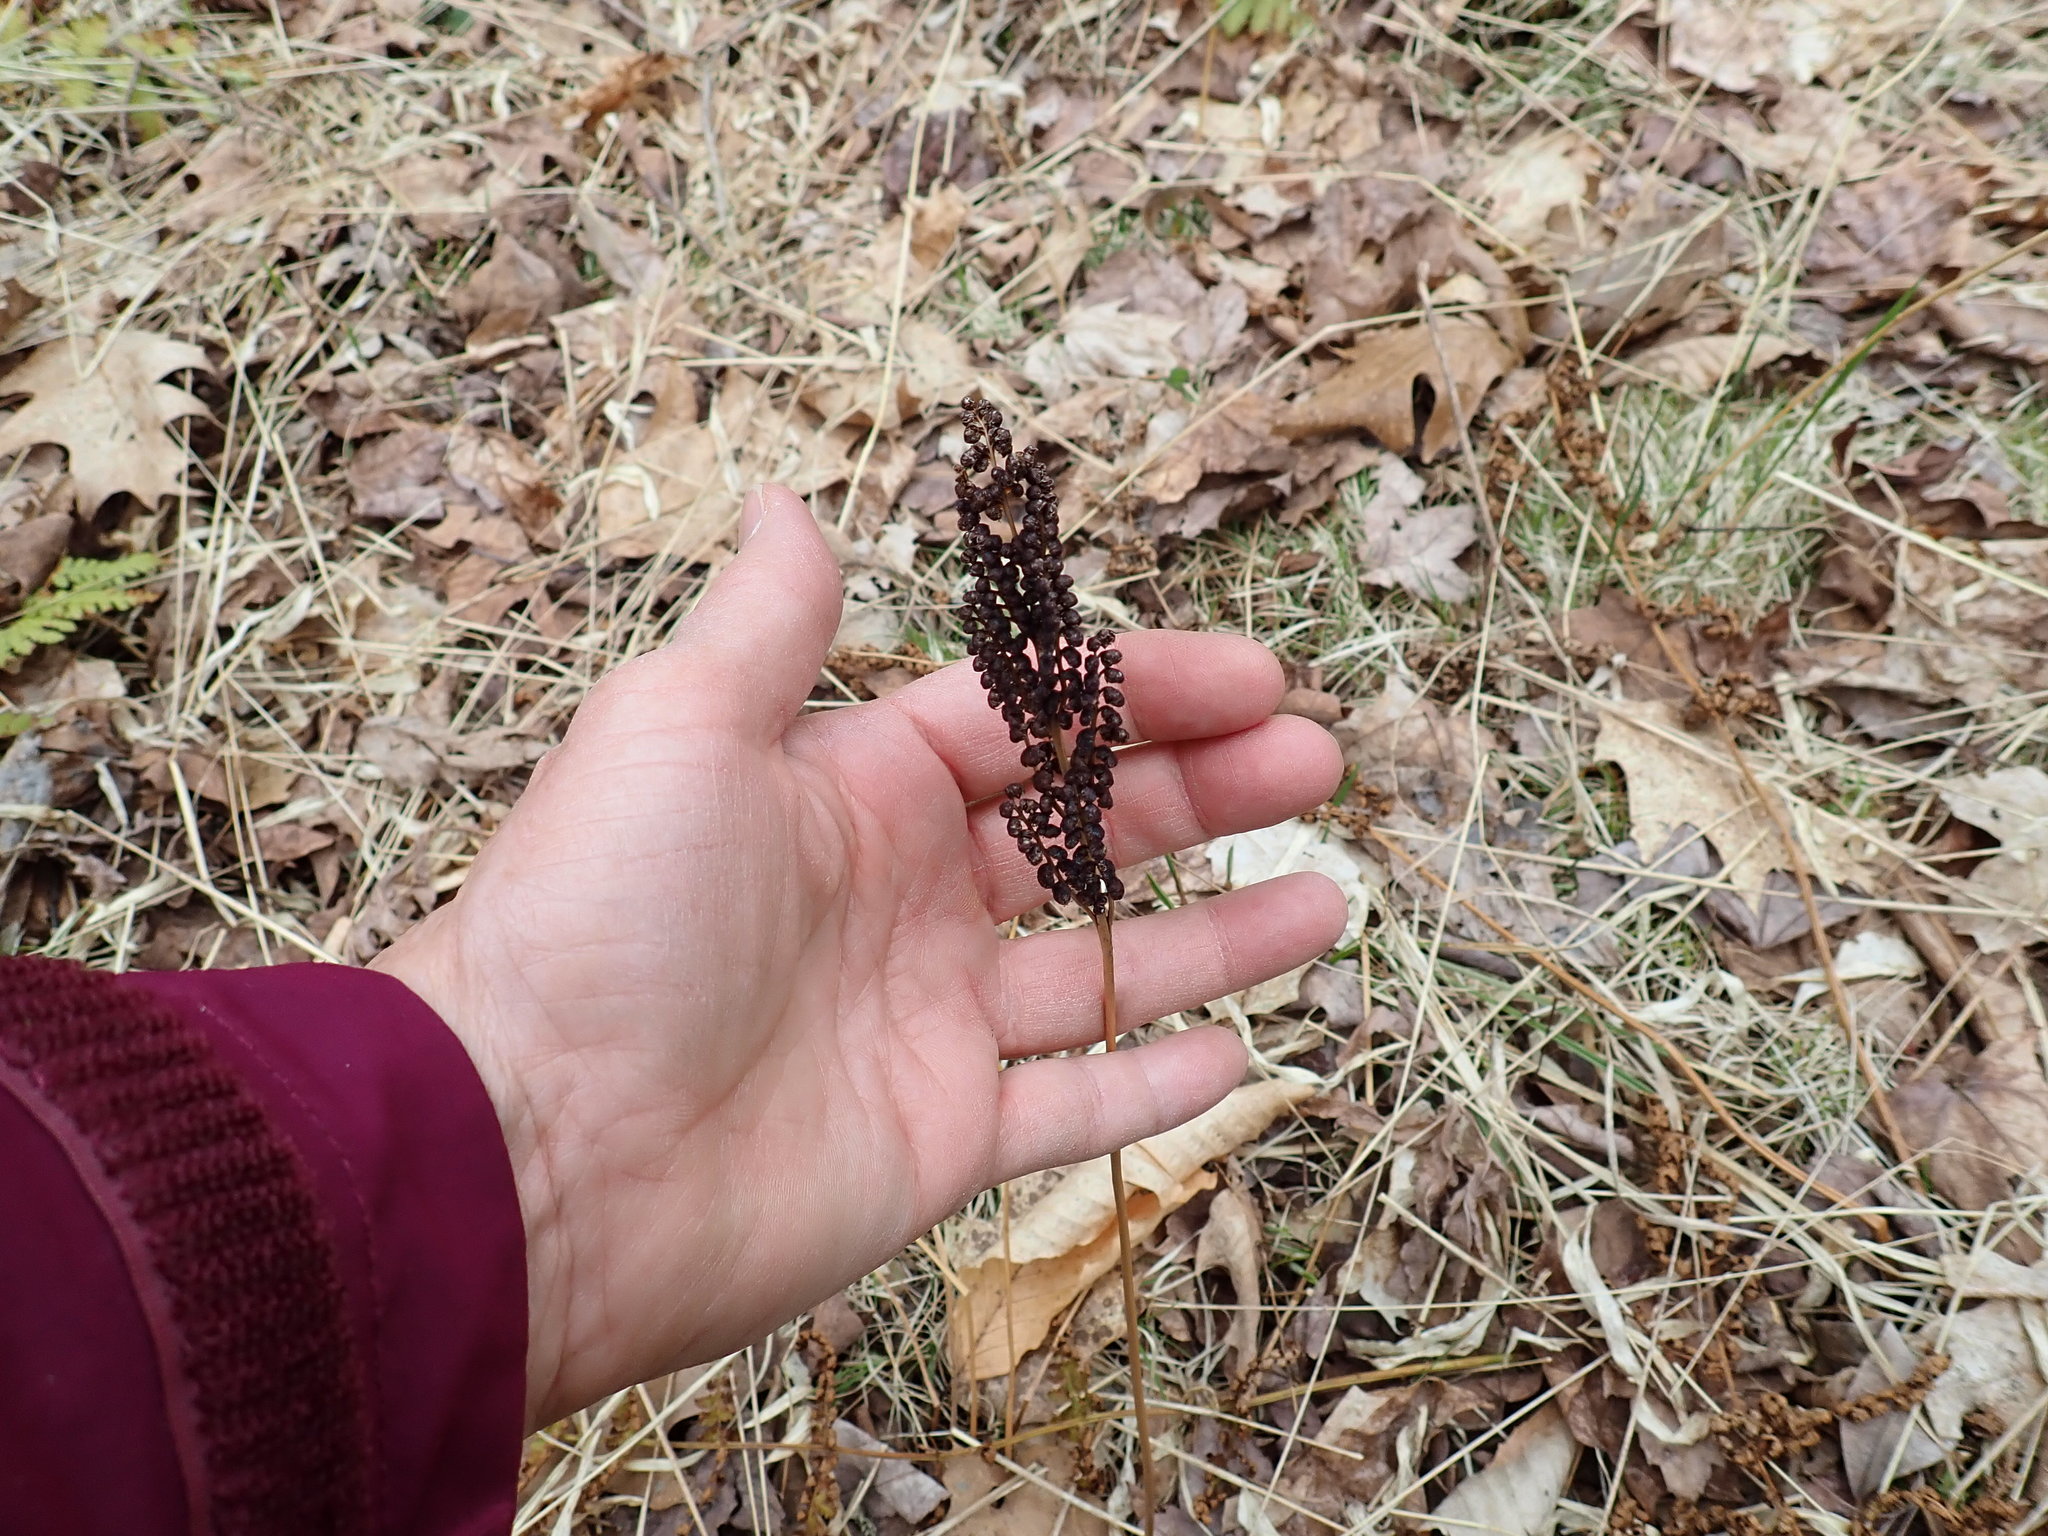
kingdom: Plantae
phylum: Tracheophyta
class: Polypodiopsida
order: Polypodiales
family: Onocleaceae
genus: Onoclea
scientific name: Onoclea sensibilis
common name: Sensitive fern
